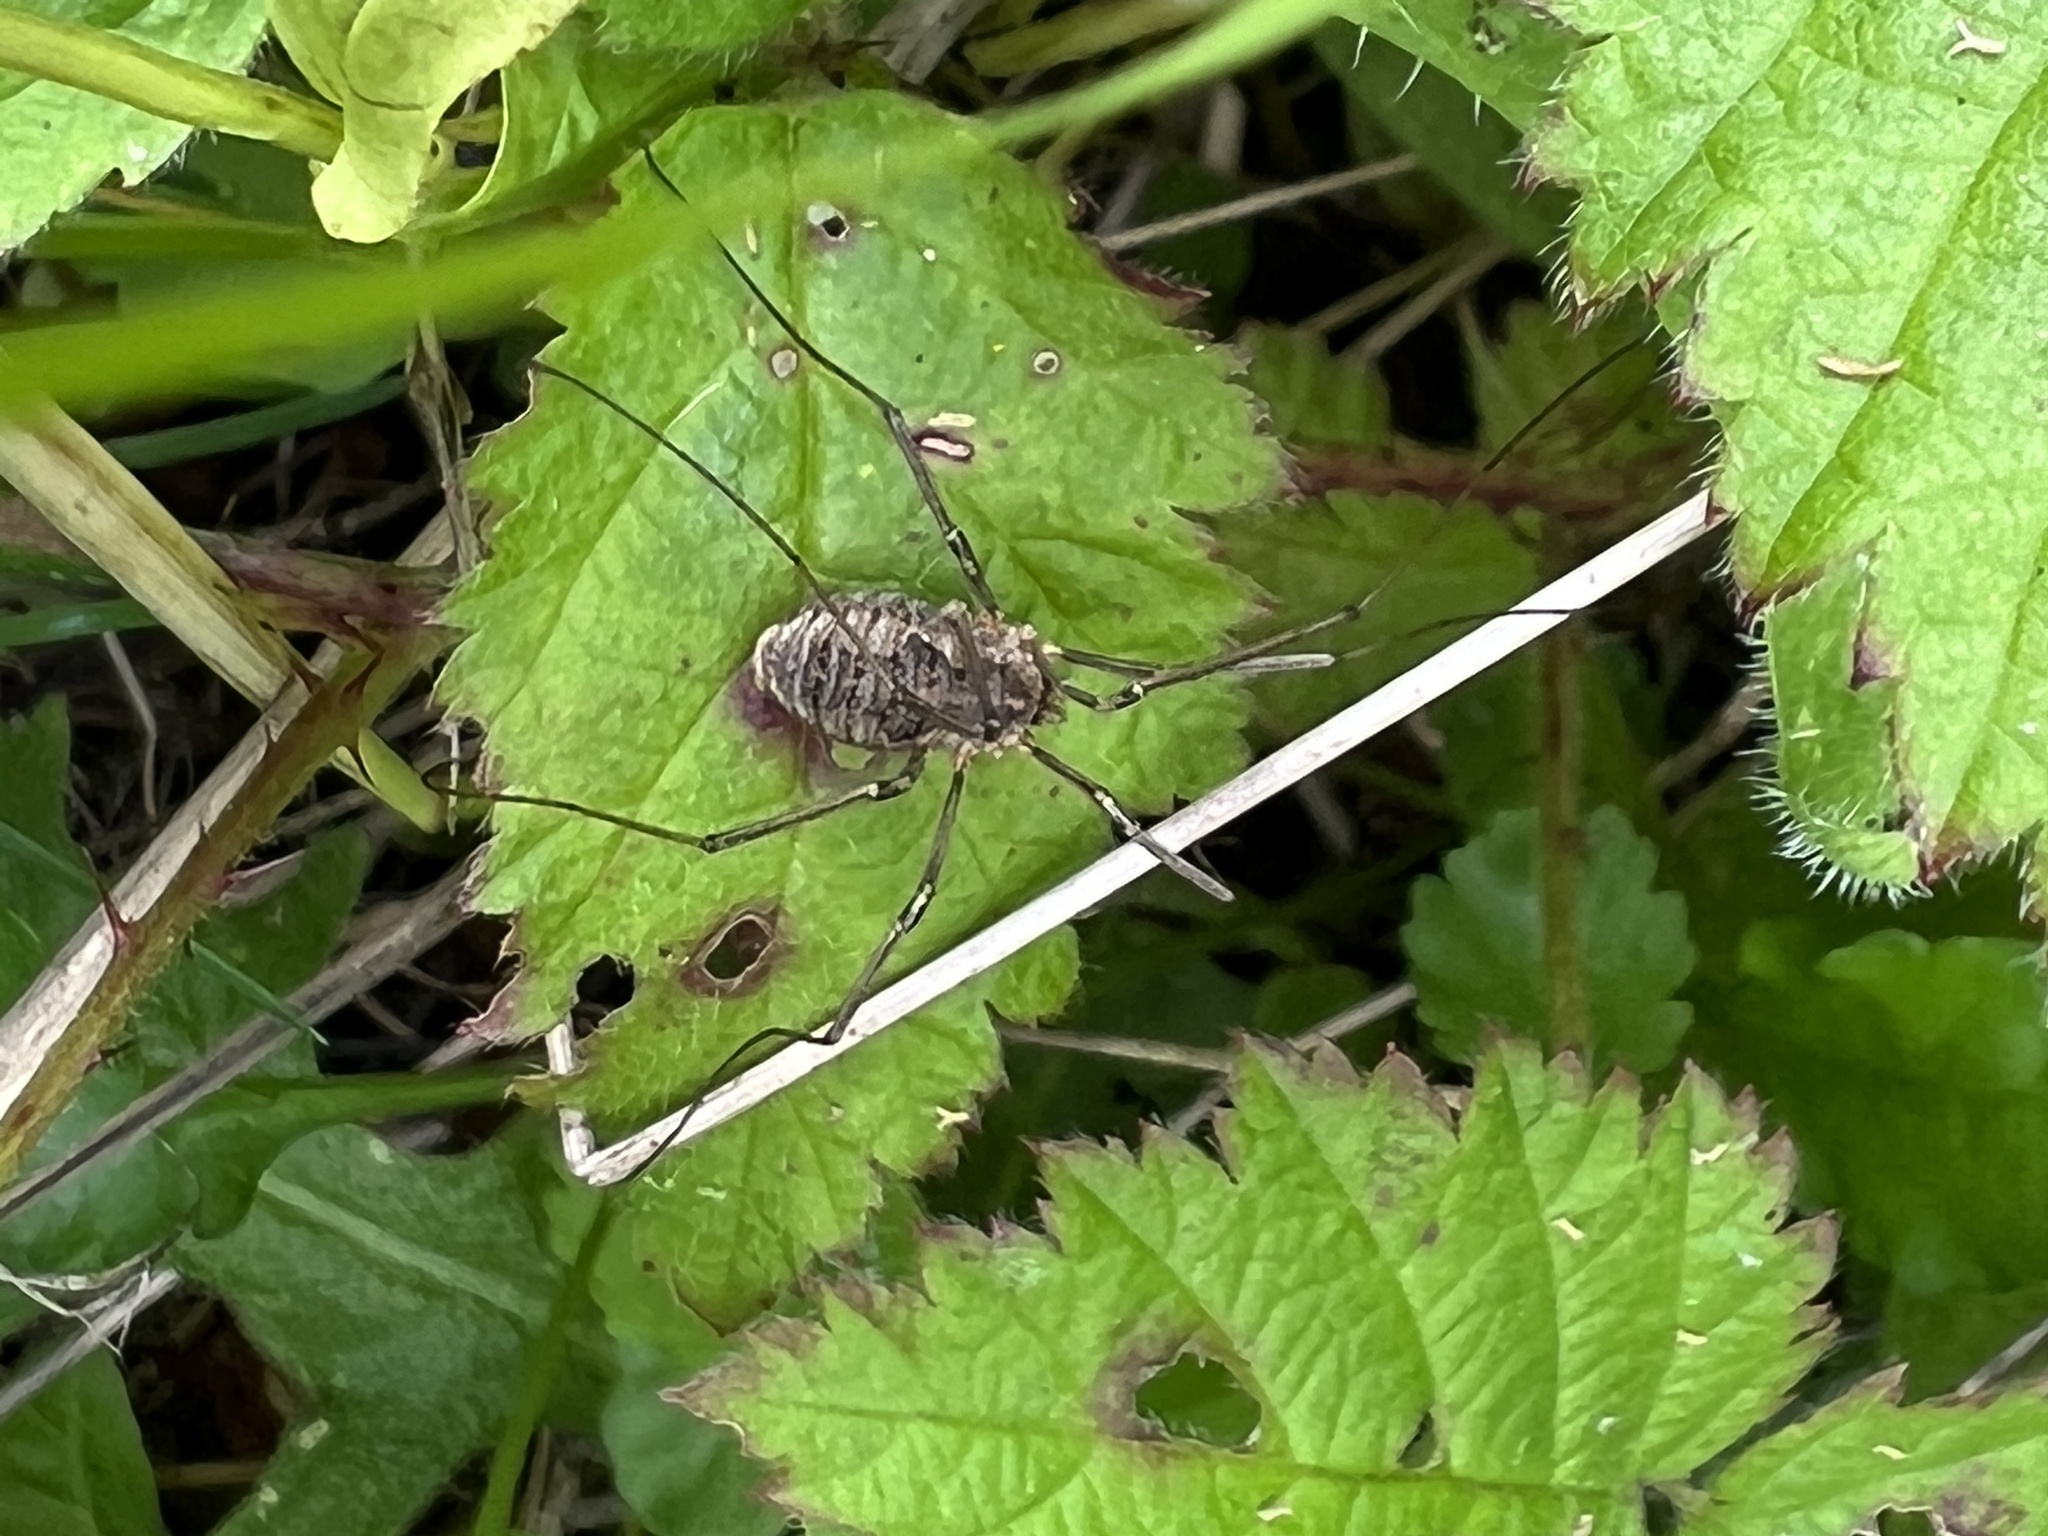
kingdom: Animalia
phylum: Arthropoda
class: Arachnida
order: Opiliones
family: Phalangiidae
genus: Phalangium
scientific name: Phalangium opilio
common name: Daddy longleg
